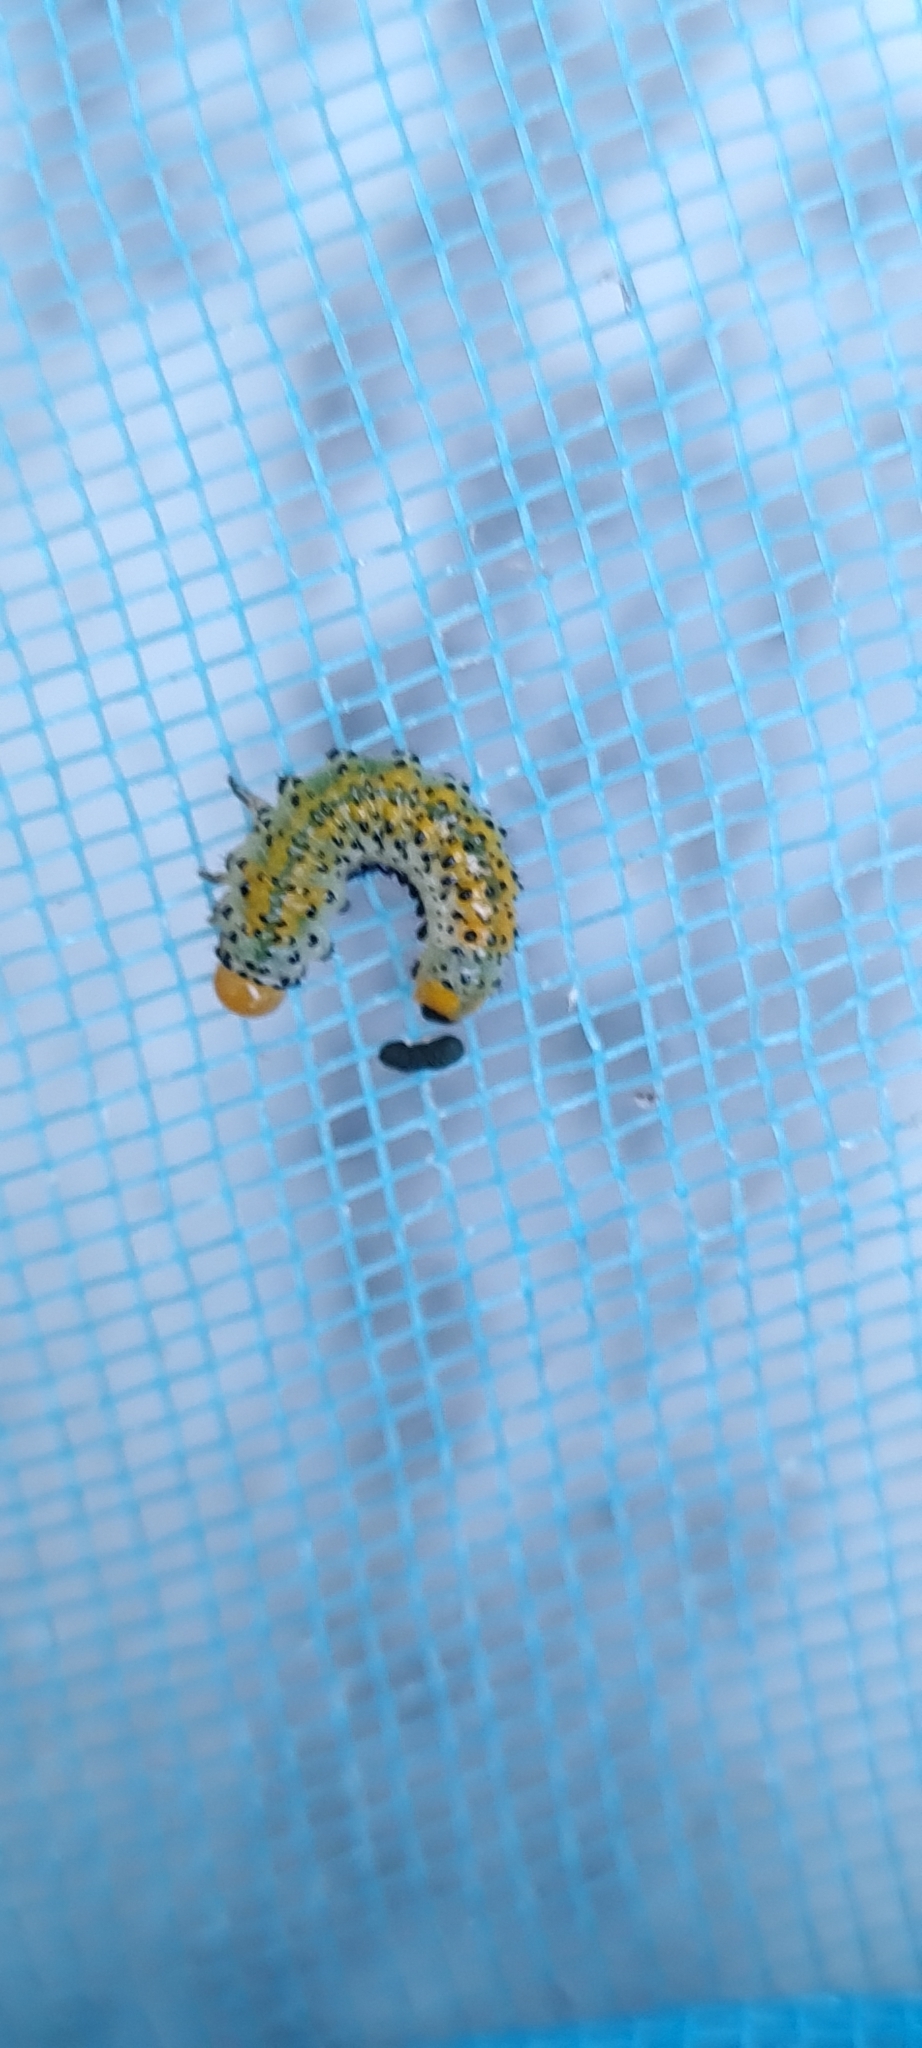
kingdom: Animalia
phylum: Arthropoda
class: Insecta
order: Hymenoptera
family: Argidae
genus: Arge
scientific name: Arge ochropus
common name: Argid sawfly
